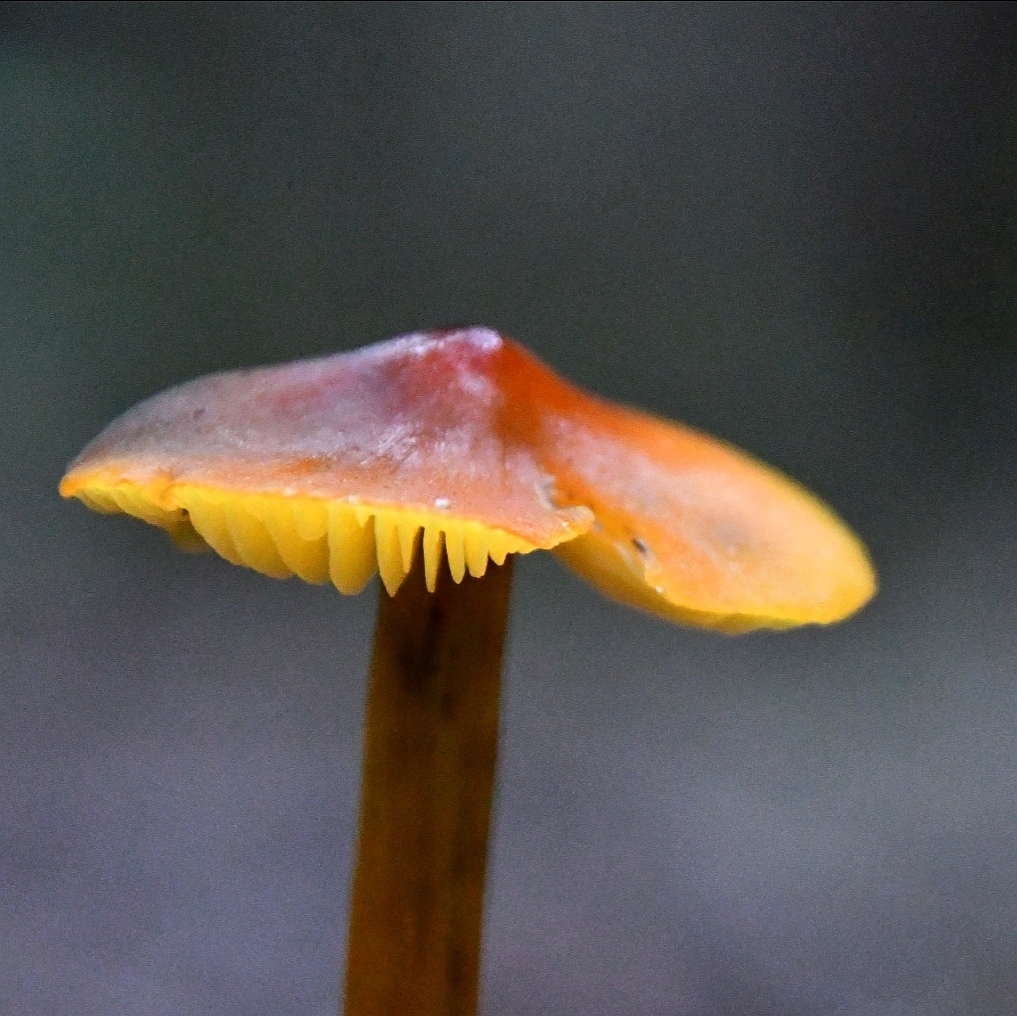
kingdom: Fungi
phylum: Basidiomycota
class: Agaricomycetes
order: Agaricales
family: Hygrophoraceae
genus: Hygrocybe
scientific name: Hygrocybe conica
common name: Blackening wax-cap
